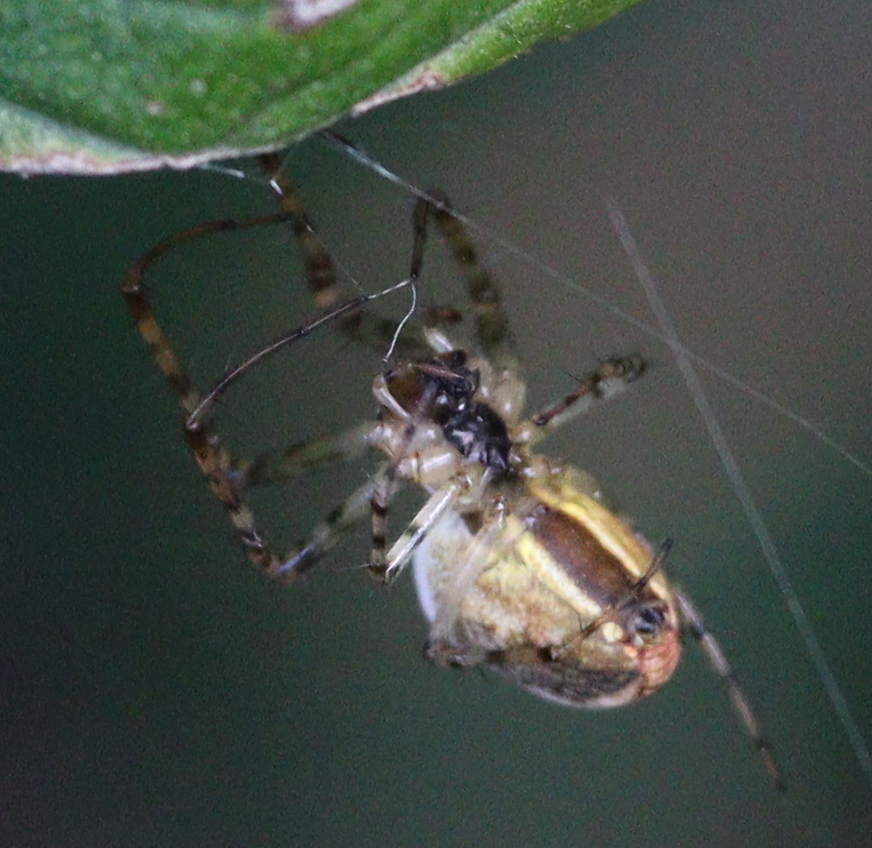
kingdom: Animalia
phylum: Arthropoda
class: Arachnida
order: Araneae
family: Tetragnathidae
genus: Metellina
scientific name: Metellina segmentata
